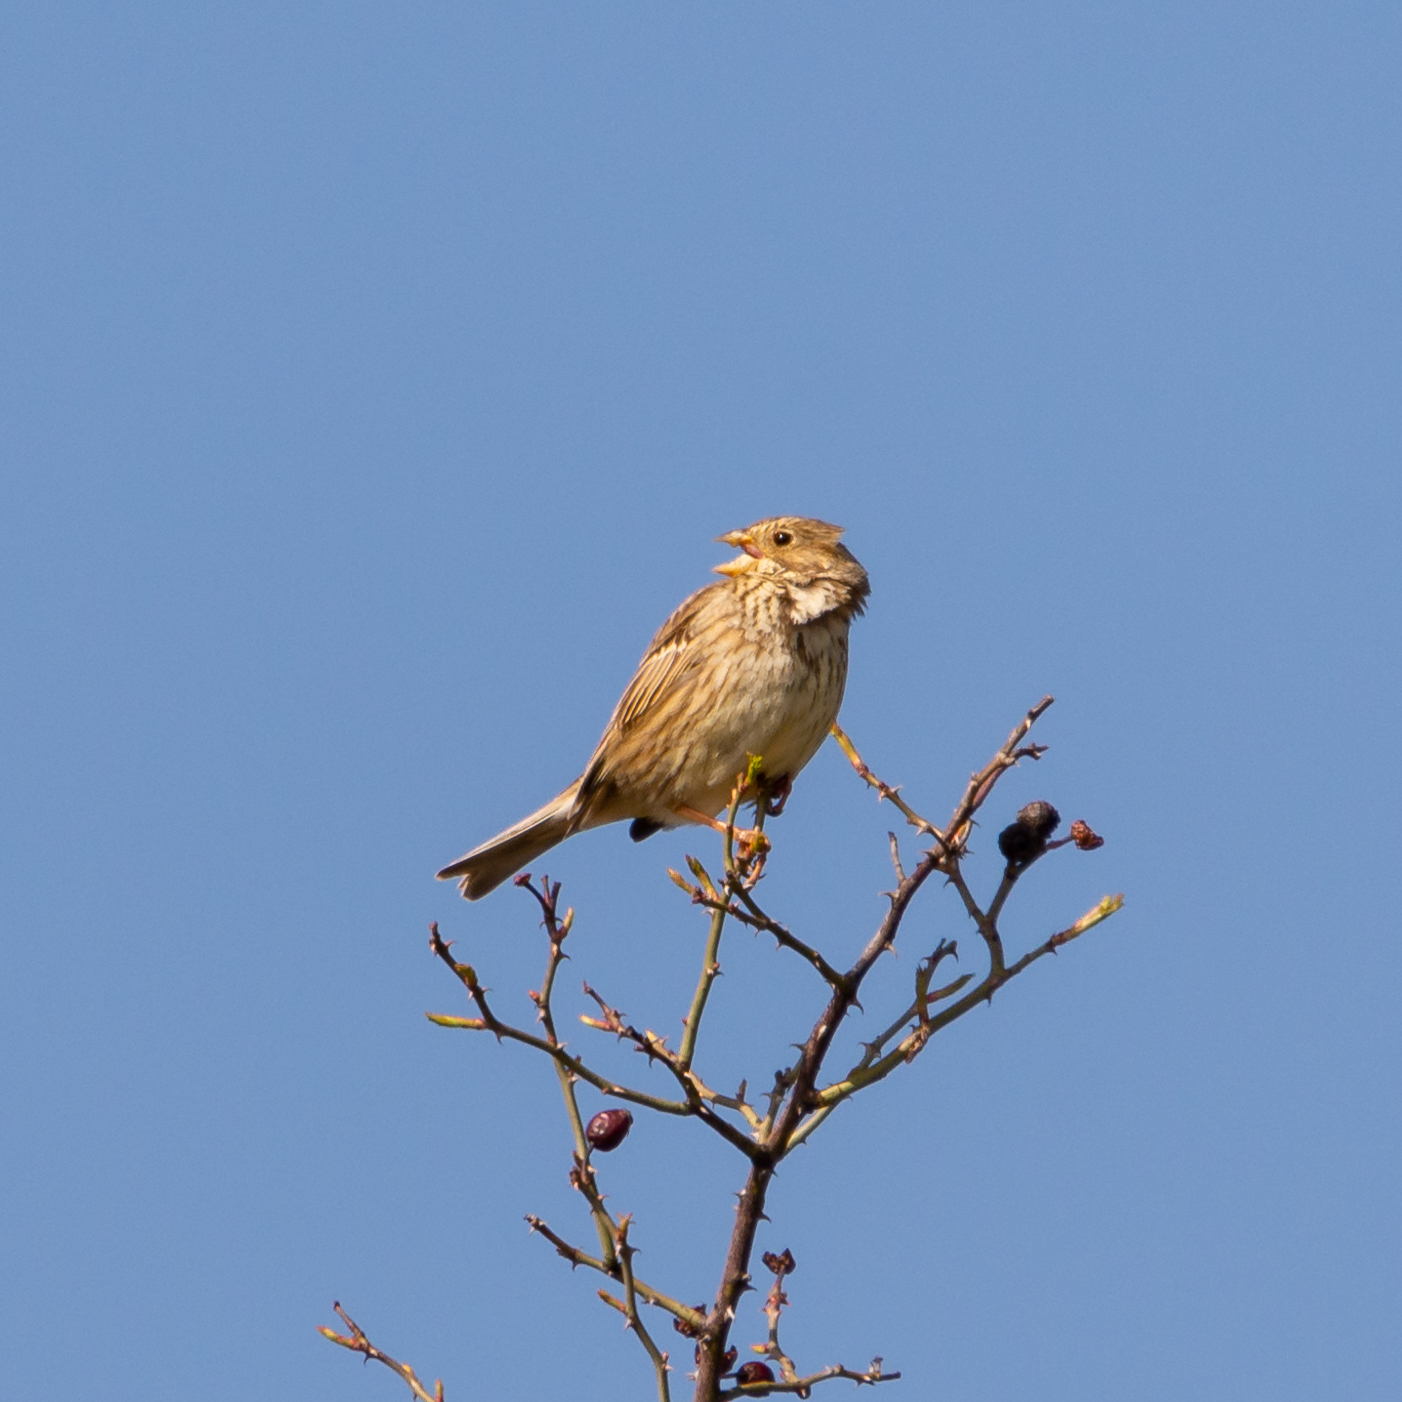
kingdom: Animalia
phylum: Chordata
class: Aves
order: Passeriformes
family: Emberizidae
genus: Emberiza
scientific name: Emberiza calandra
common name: Corn bunting
